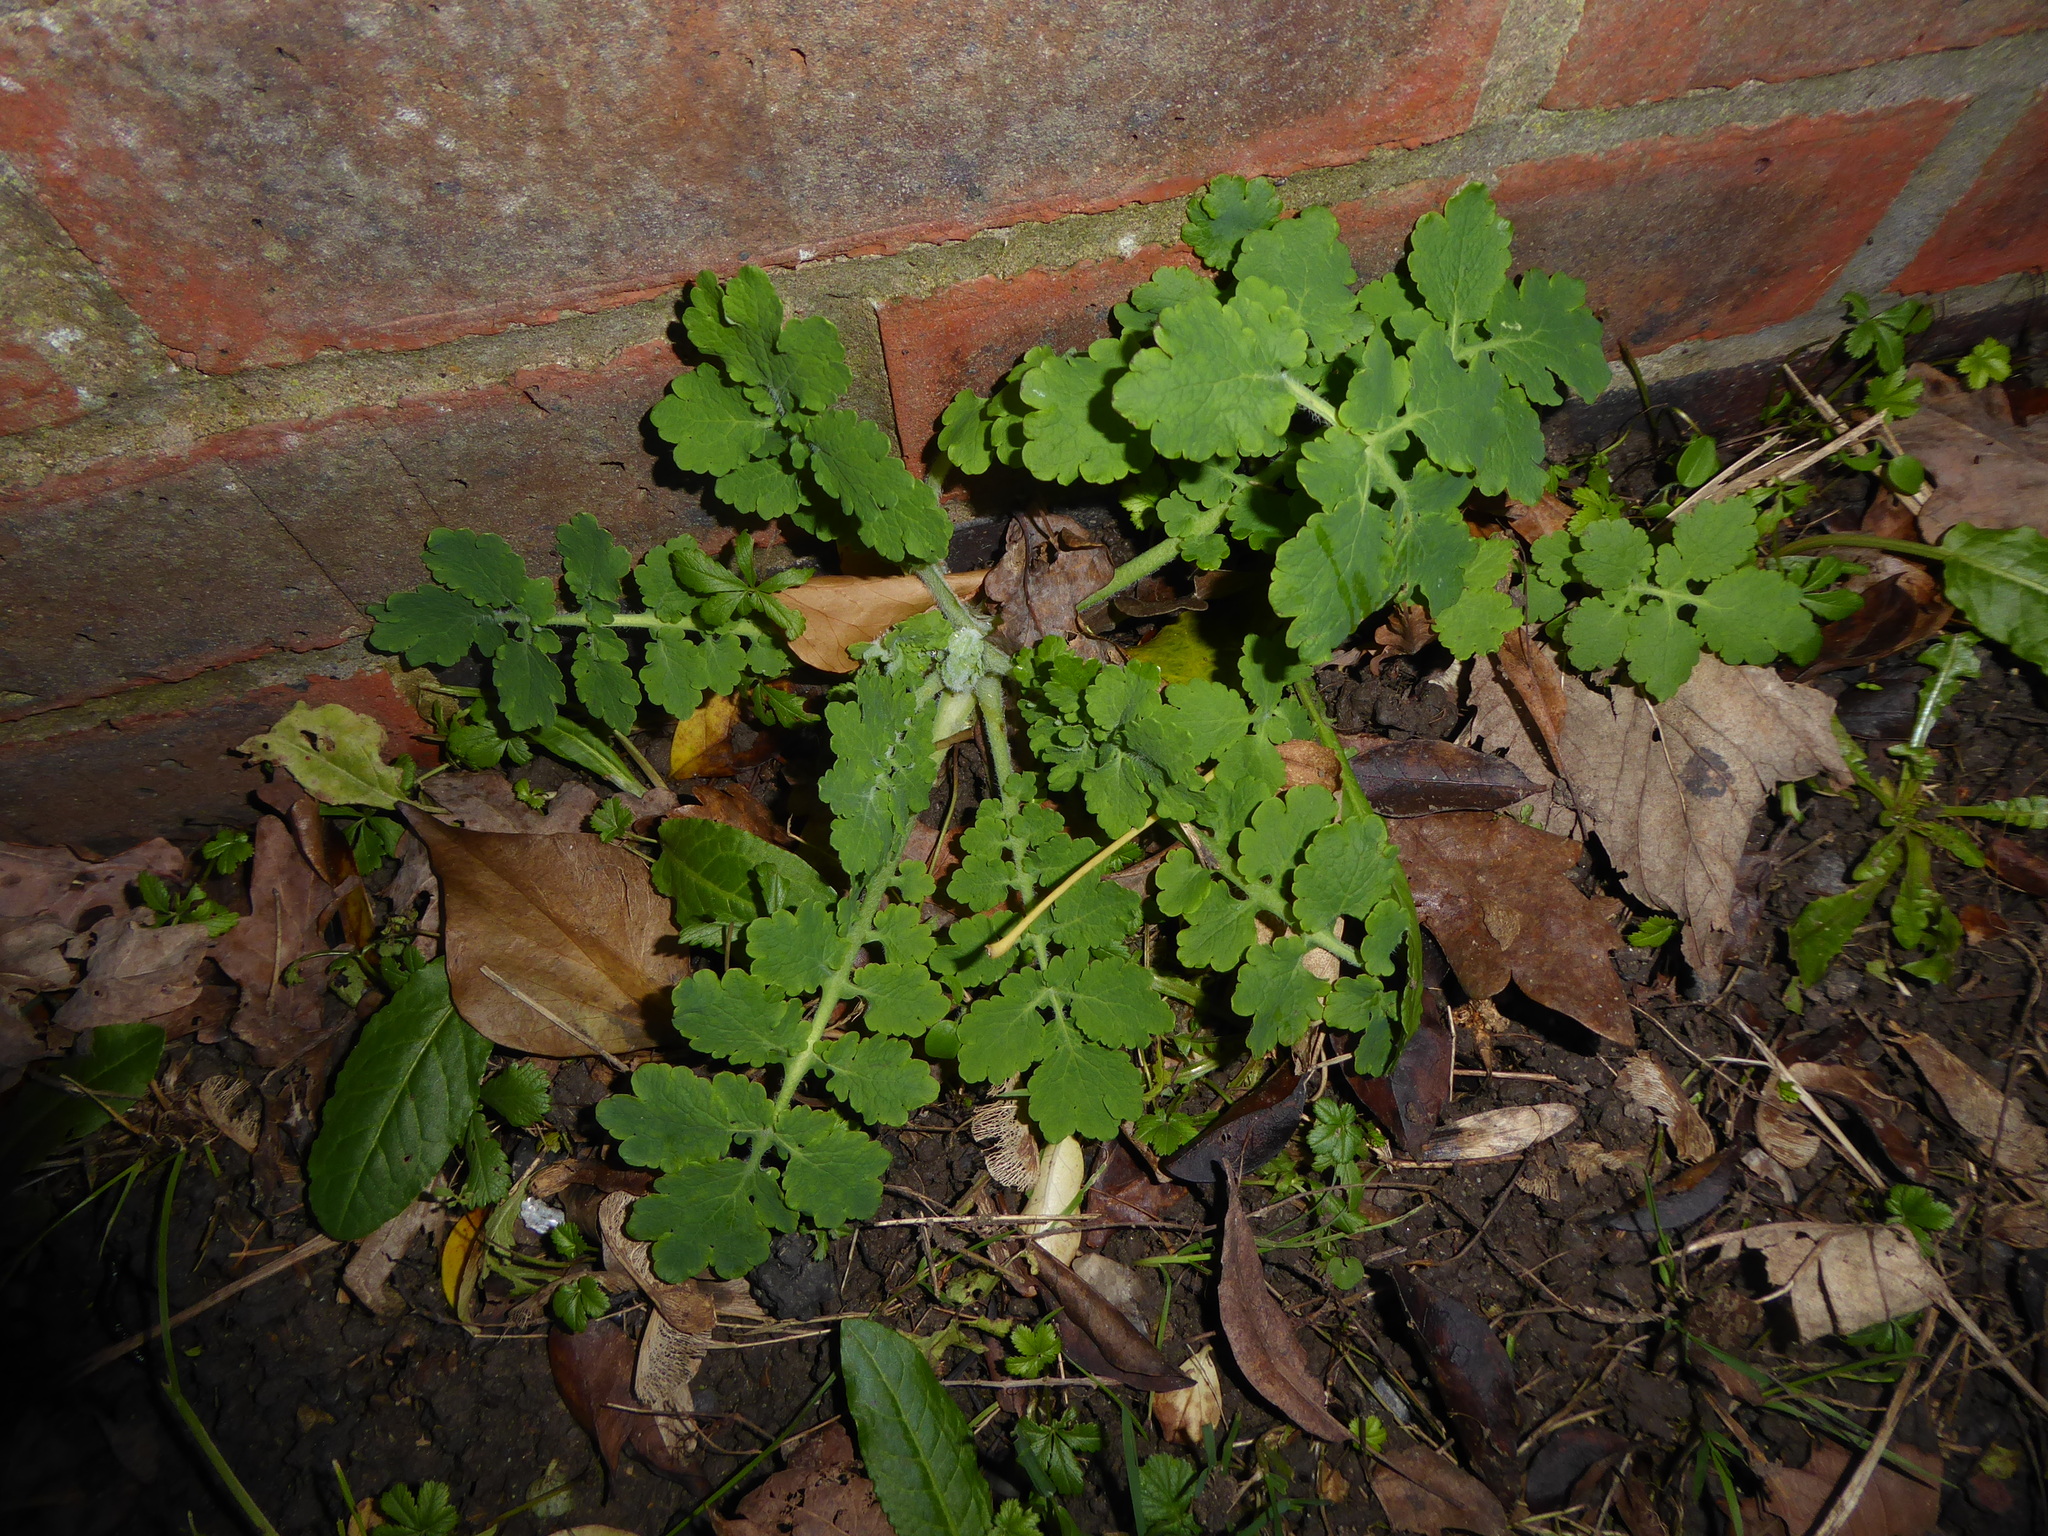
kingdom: Plantae
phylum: Tracheophyta
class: Magnoliopsida
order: Ranunculales
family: Papaveraceae
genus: Chelidonium
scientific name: Chelidonium majus
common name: Greater celandine
